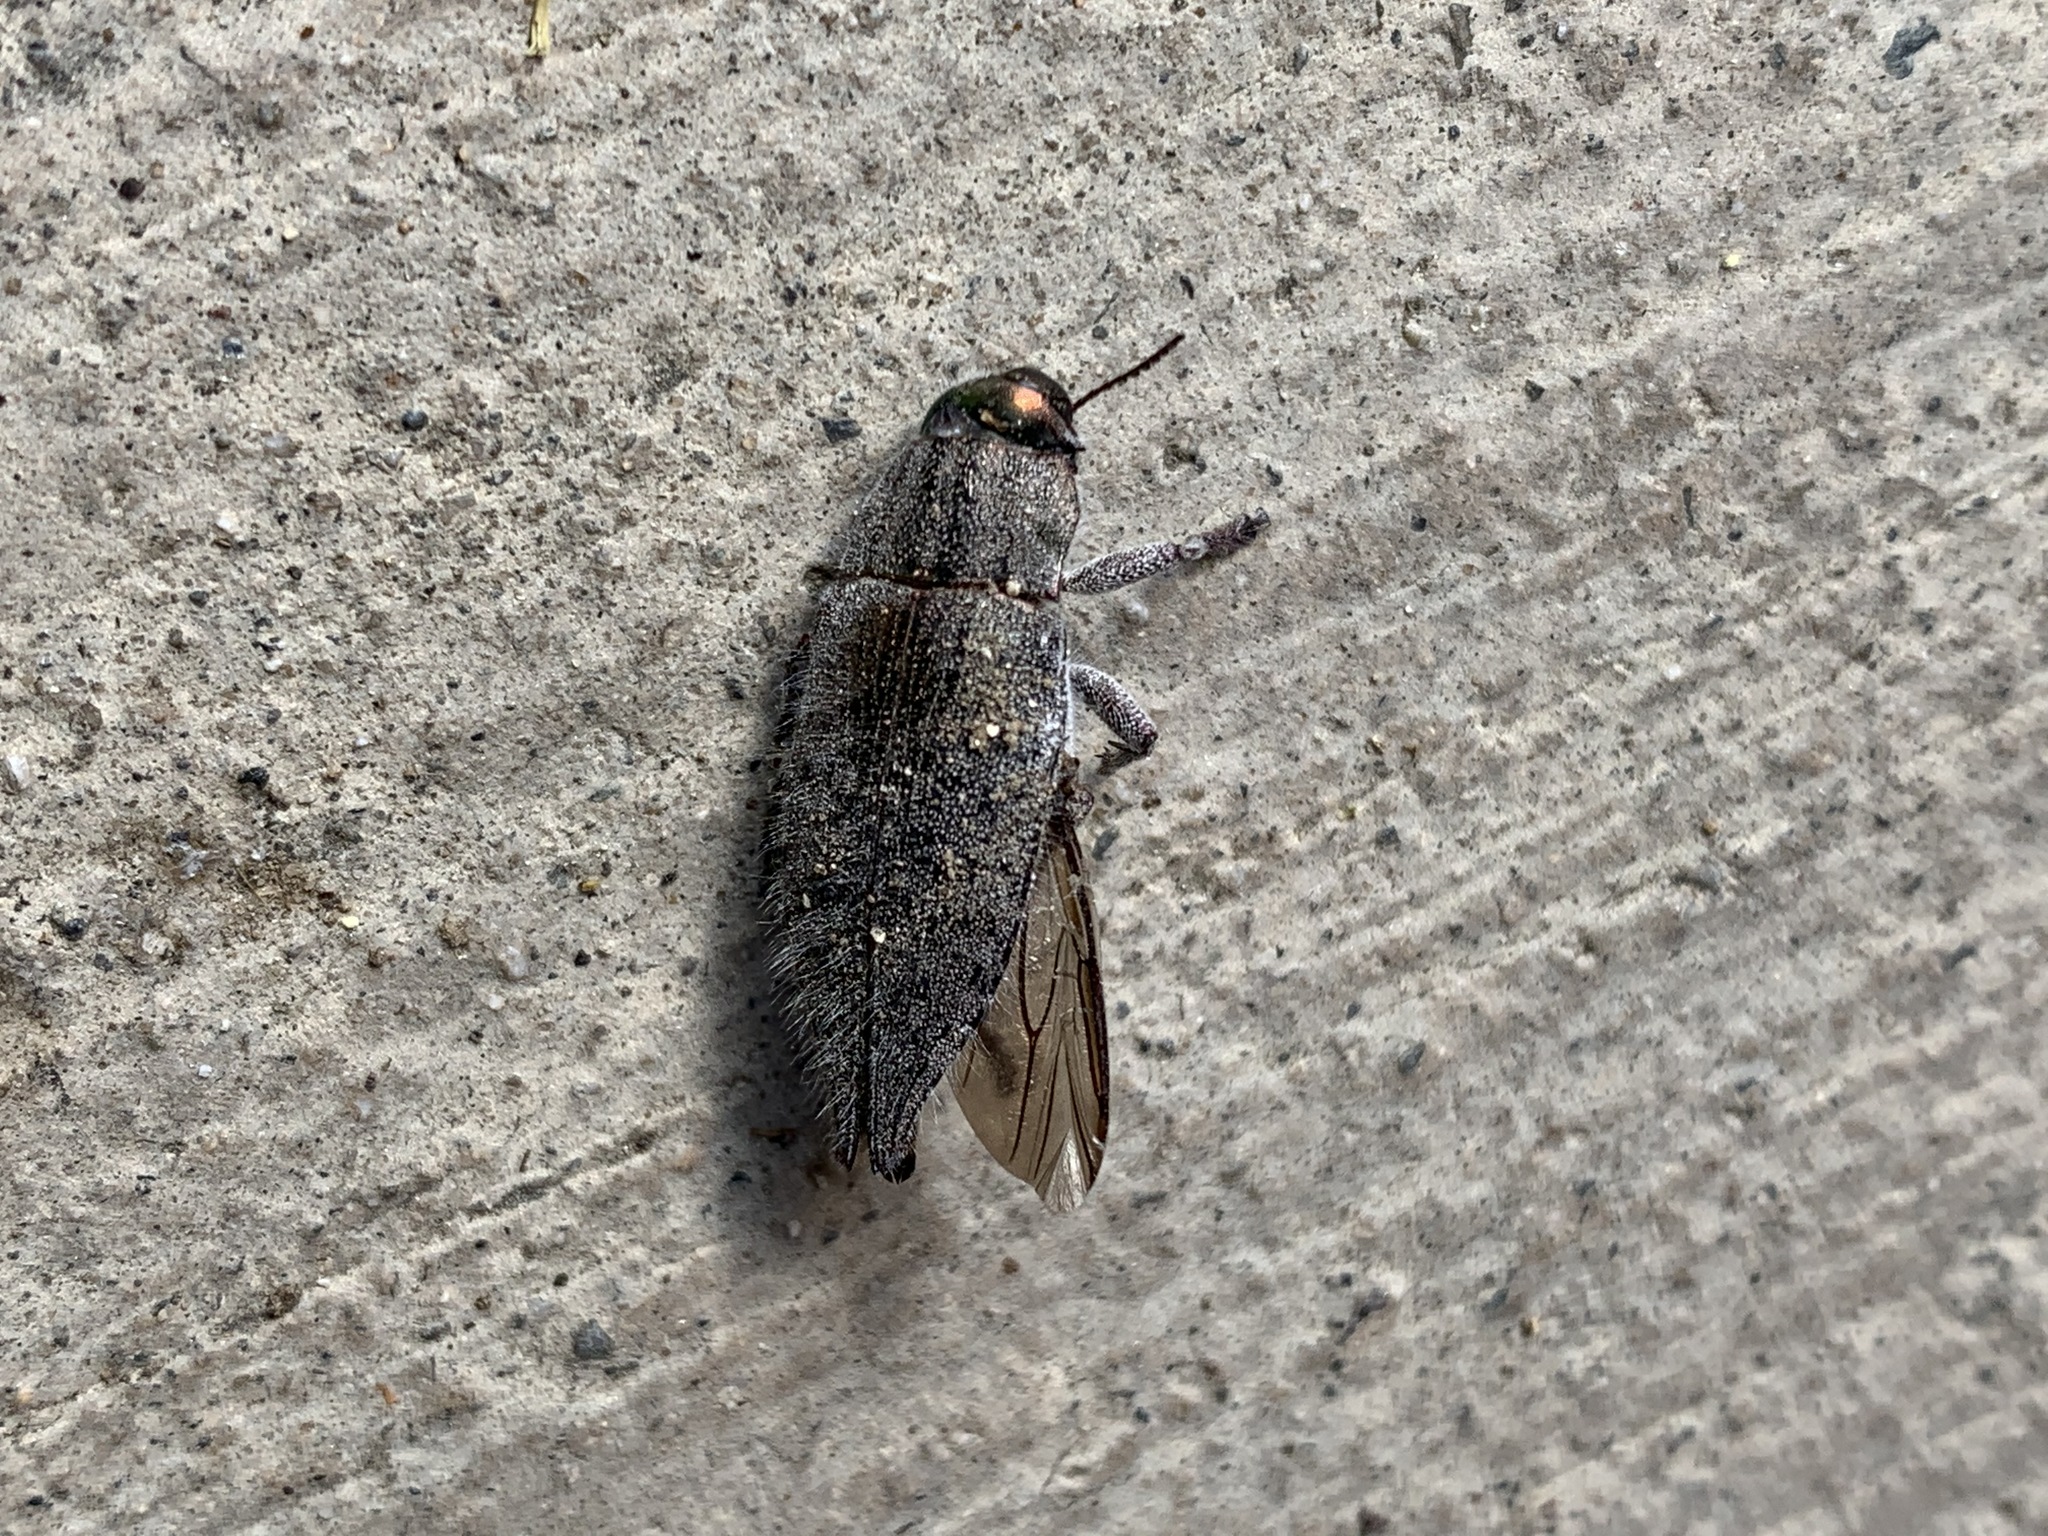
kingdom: Animalia
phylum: Arthropoda
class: Insecta
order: Coleoptera
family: Buprestidae
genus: Dicerca
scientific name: Dicerca hornii
